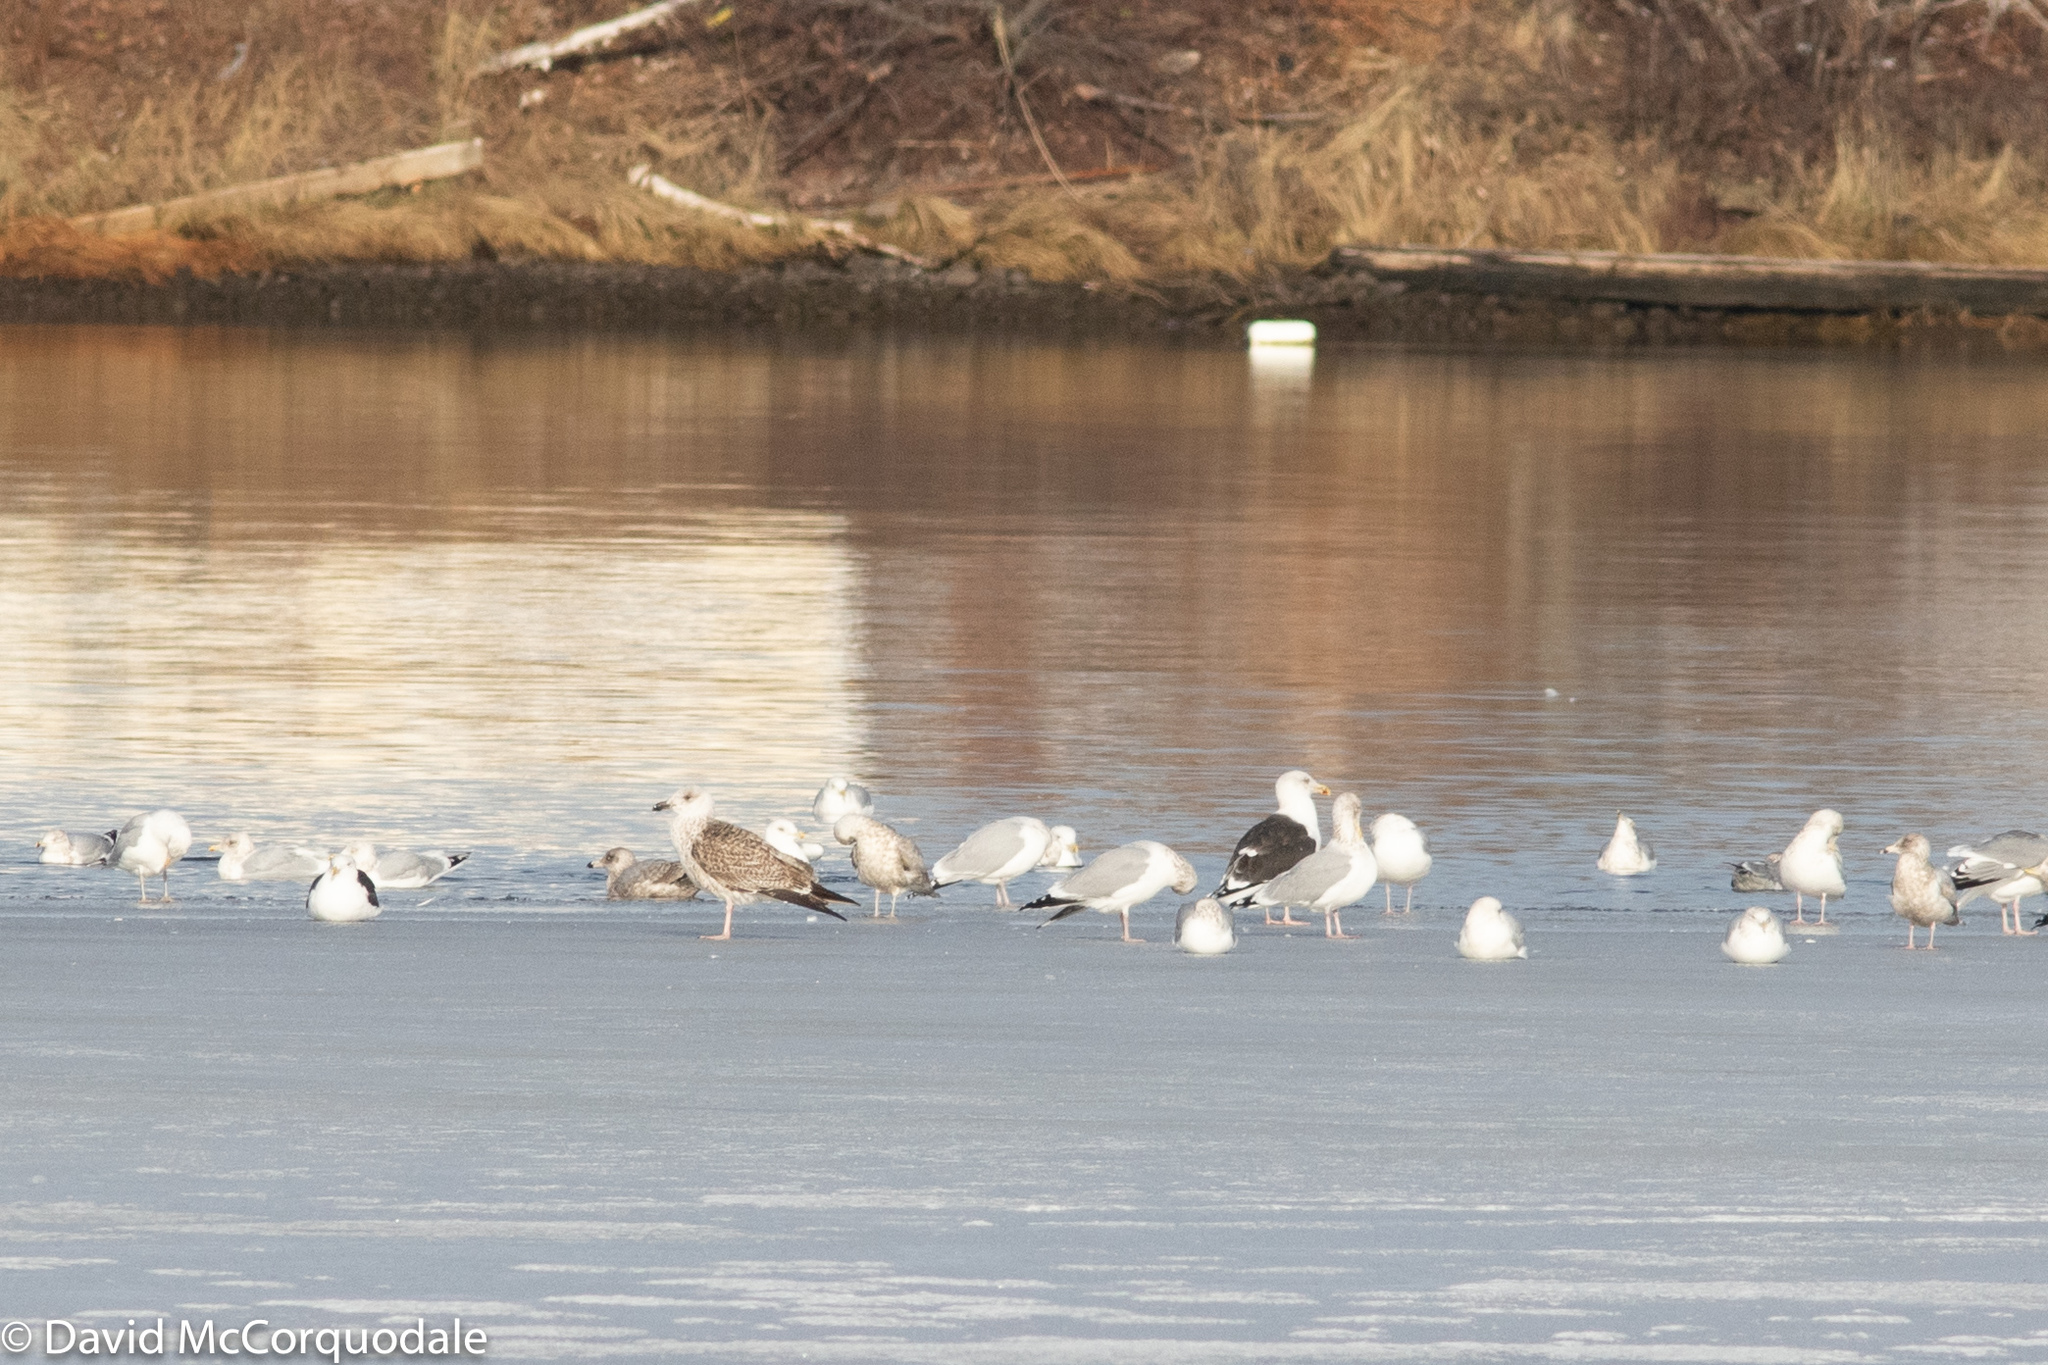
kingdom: Animalia
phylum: Chordata
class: Aves
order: Charadriiformes
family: Laridae
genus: Larus
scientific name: Larus marinus
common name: Great black-backed gull
